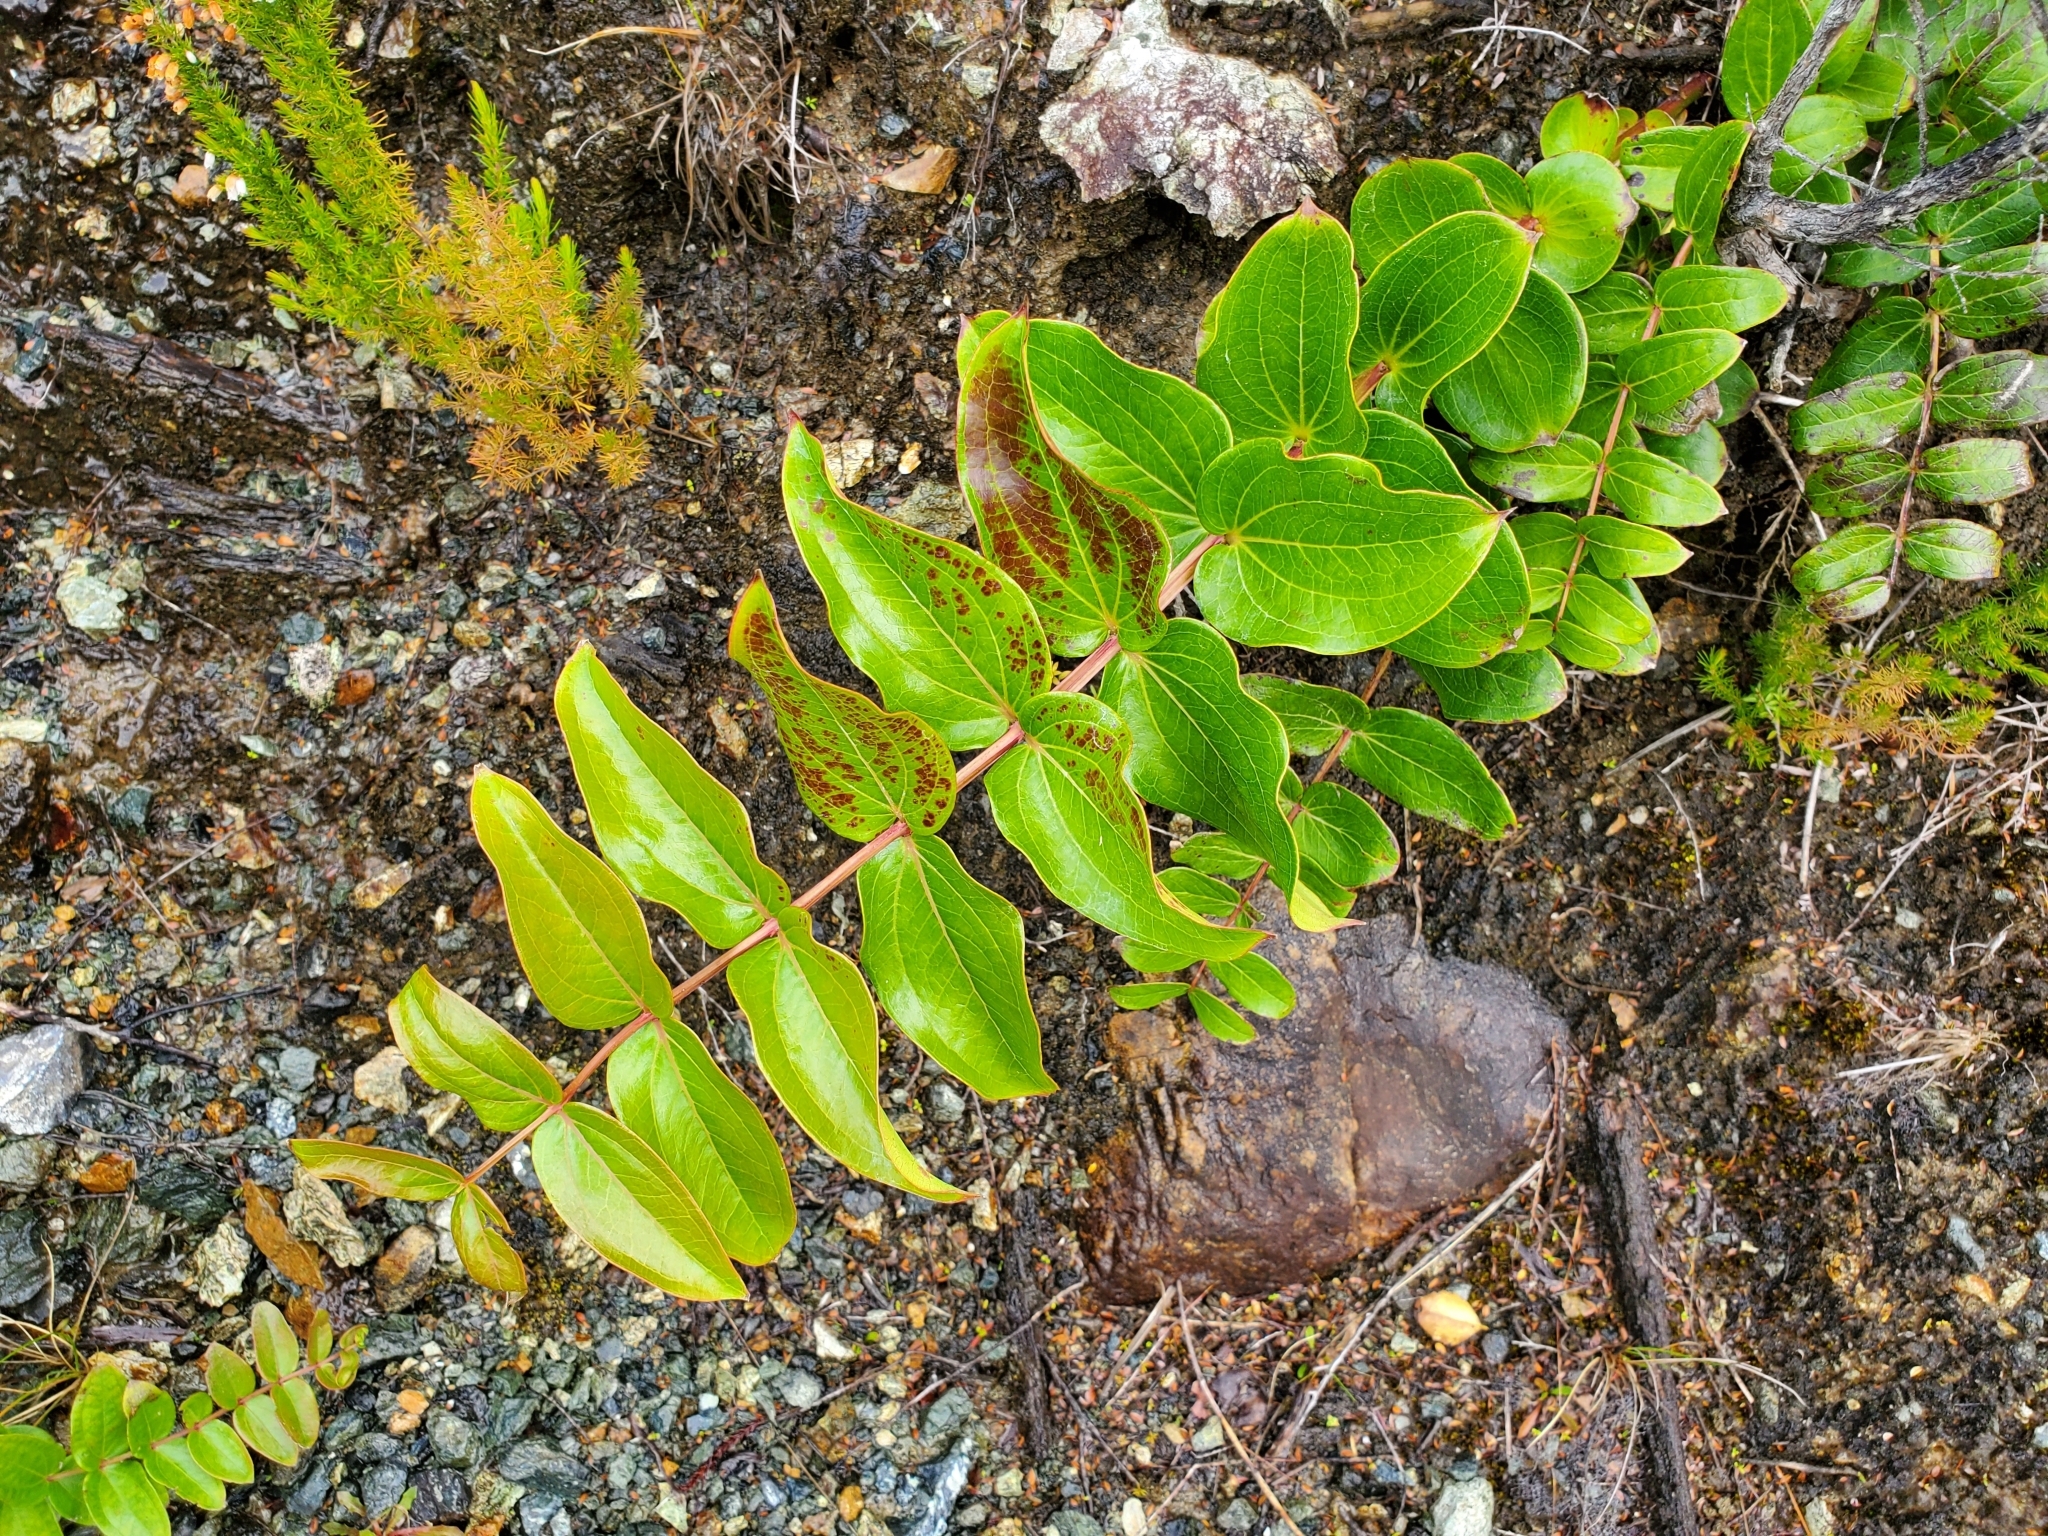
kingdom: Plantae
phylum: Tracheophyta
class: Magnoliopsida
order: Cucurbitales
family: Coriariaceae
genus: Coriaria
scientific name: Coriaria arborea
